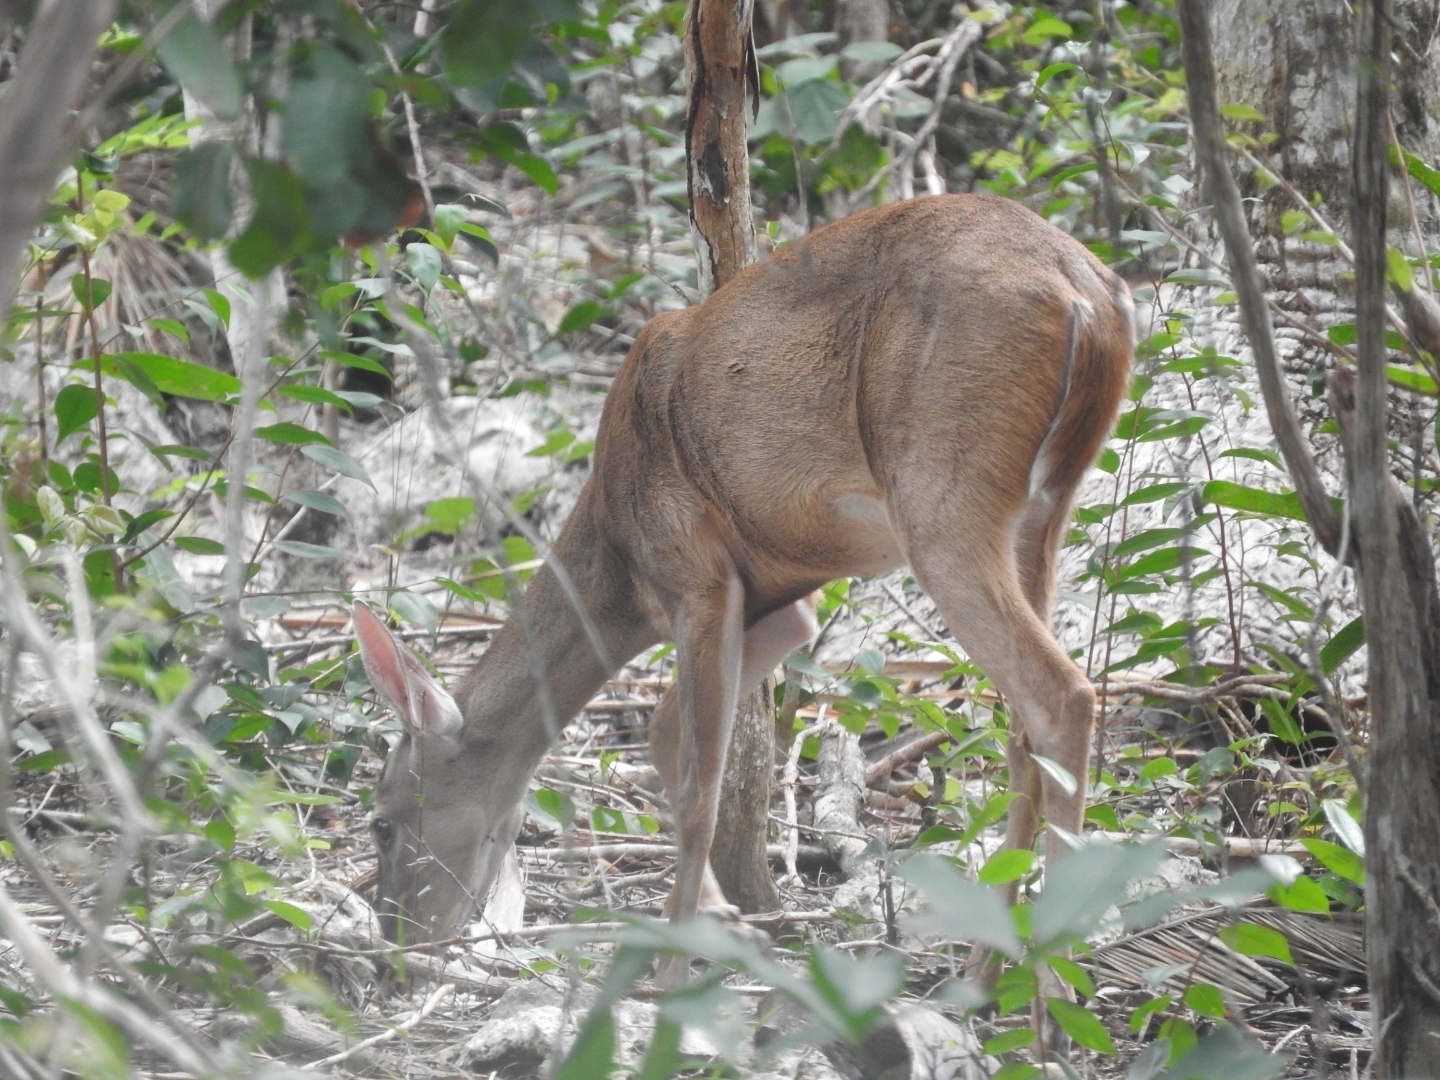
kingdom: Animalia
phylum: Chordata
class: Mammalia
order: Artiodactyla
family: Cervidae
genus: Odocoileus
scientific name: Odocoileus virginianus
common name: White-tailed deer
